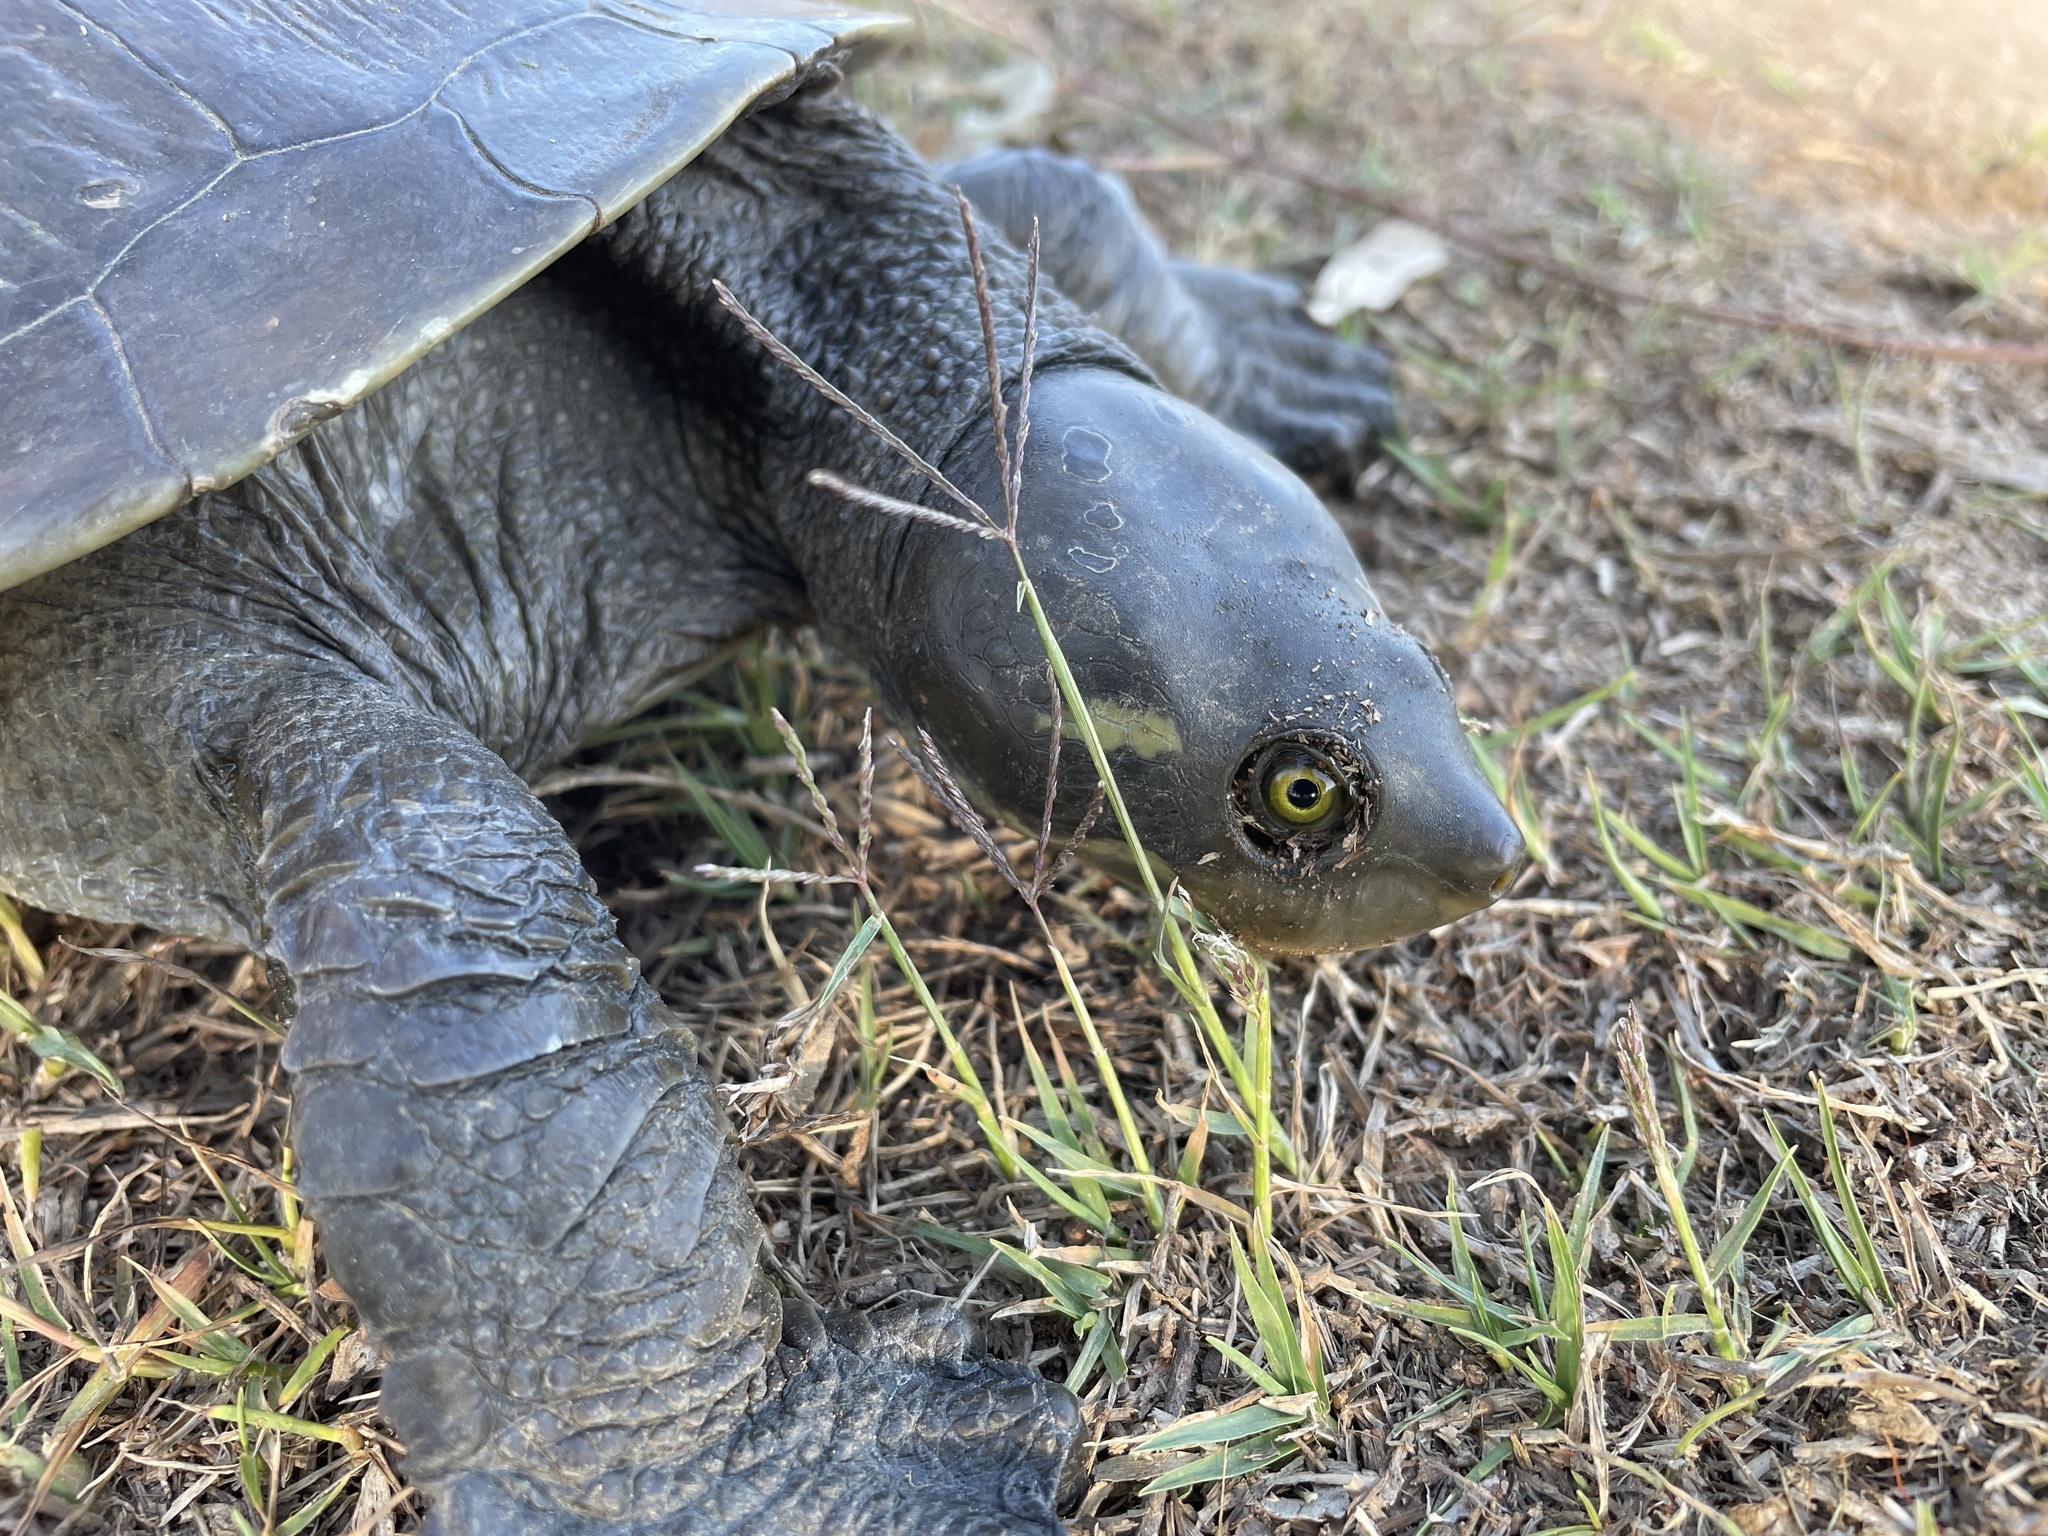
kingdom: Animalia
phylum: Chordata
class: Testudines
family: Chelidae
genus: Emydura
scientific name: Emydura macquarii
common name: Murray river turtle
